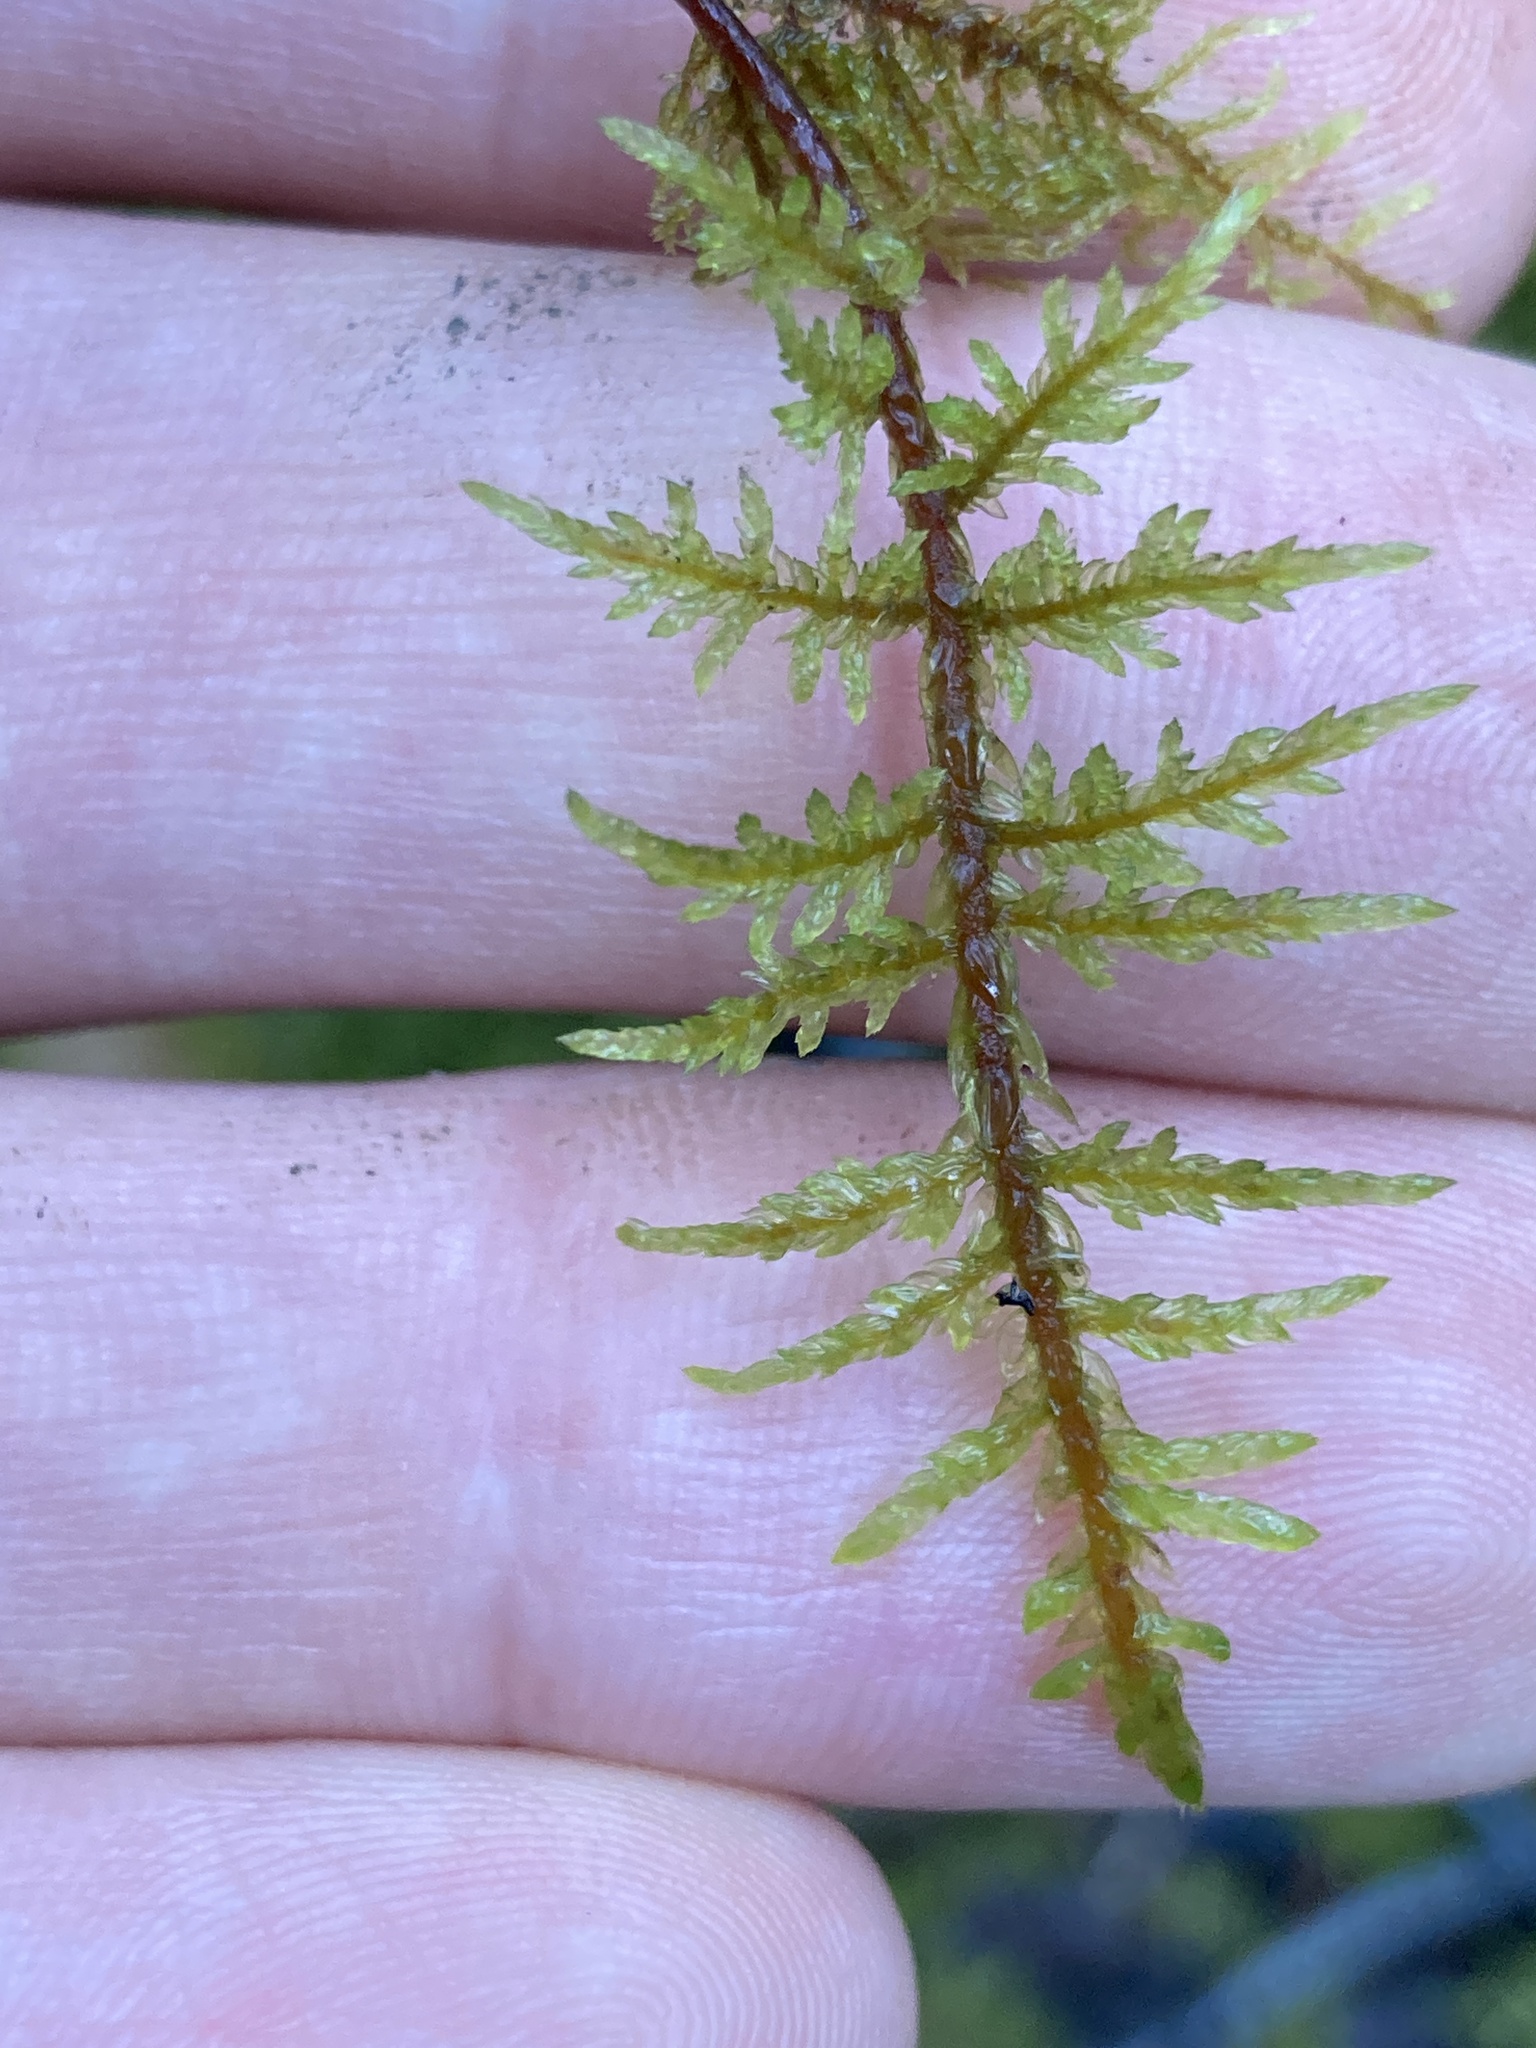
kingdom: Plantae
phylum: Bryophyta
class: Bryopsida
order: Hypnales
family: Hylocomiaceae
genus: Hylocomium
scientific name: Hylocomium splendens
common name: Stairstep moss
